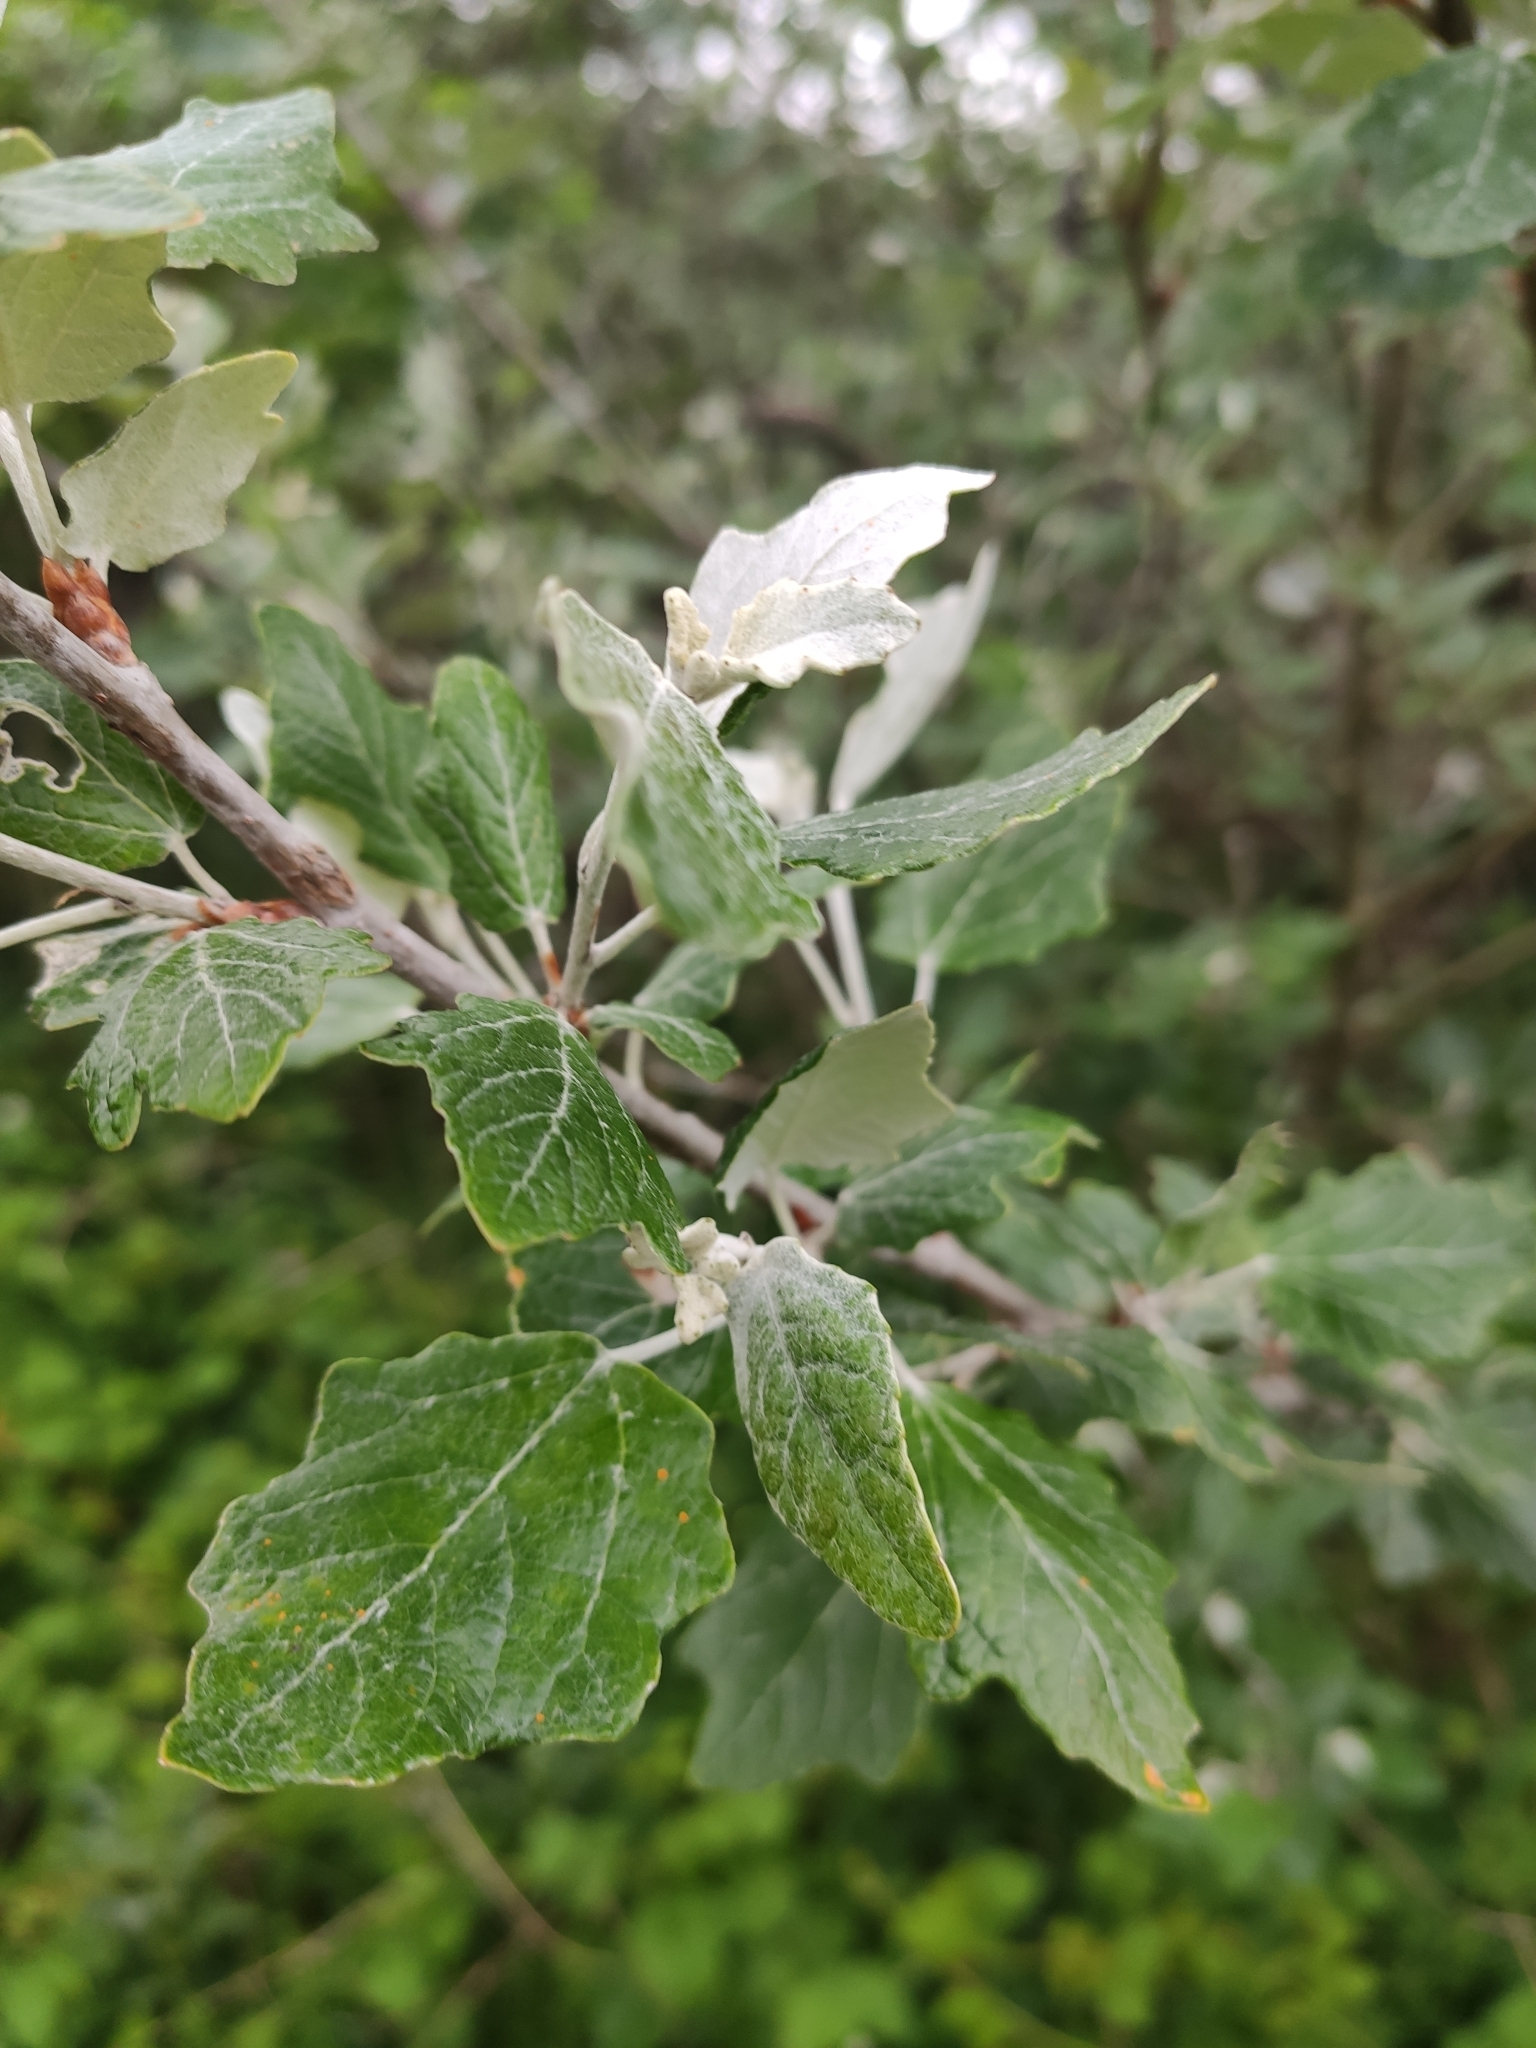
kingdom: Plantae
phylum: Tracheophyta
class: Magnoliopsida
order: Malpighiales
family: Salicaceae
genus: Populus
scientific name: Populus alba
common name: White poplar
